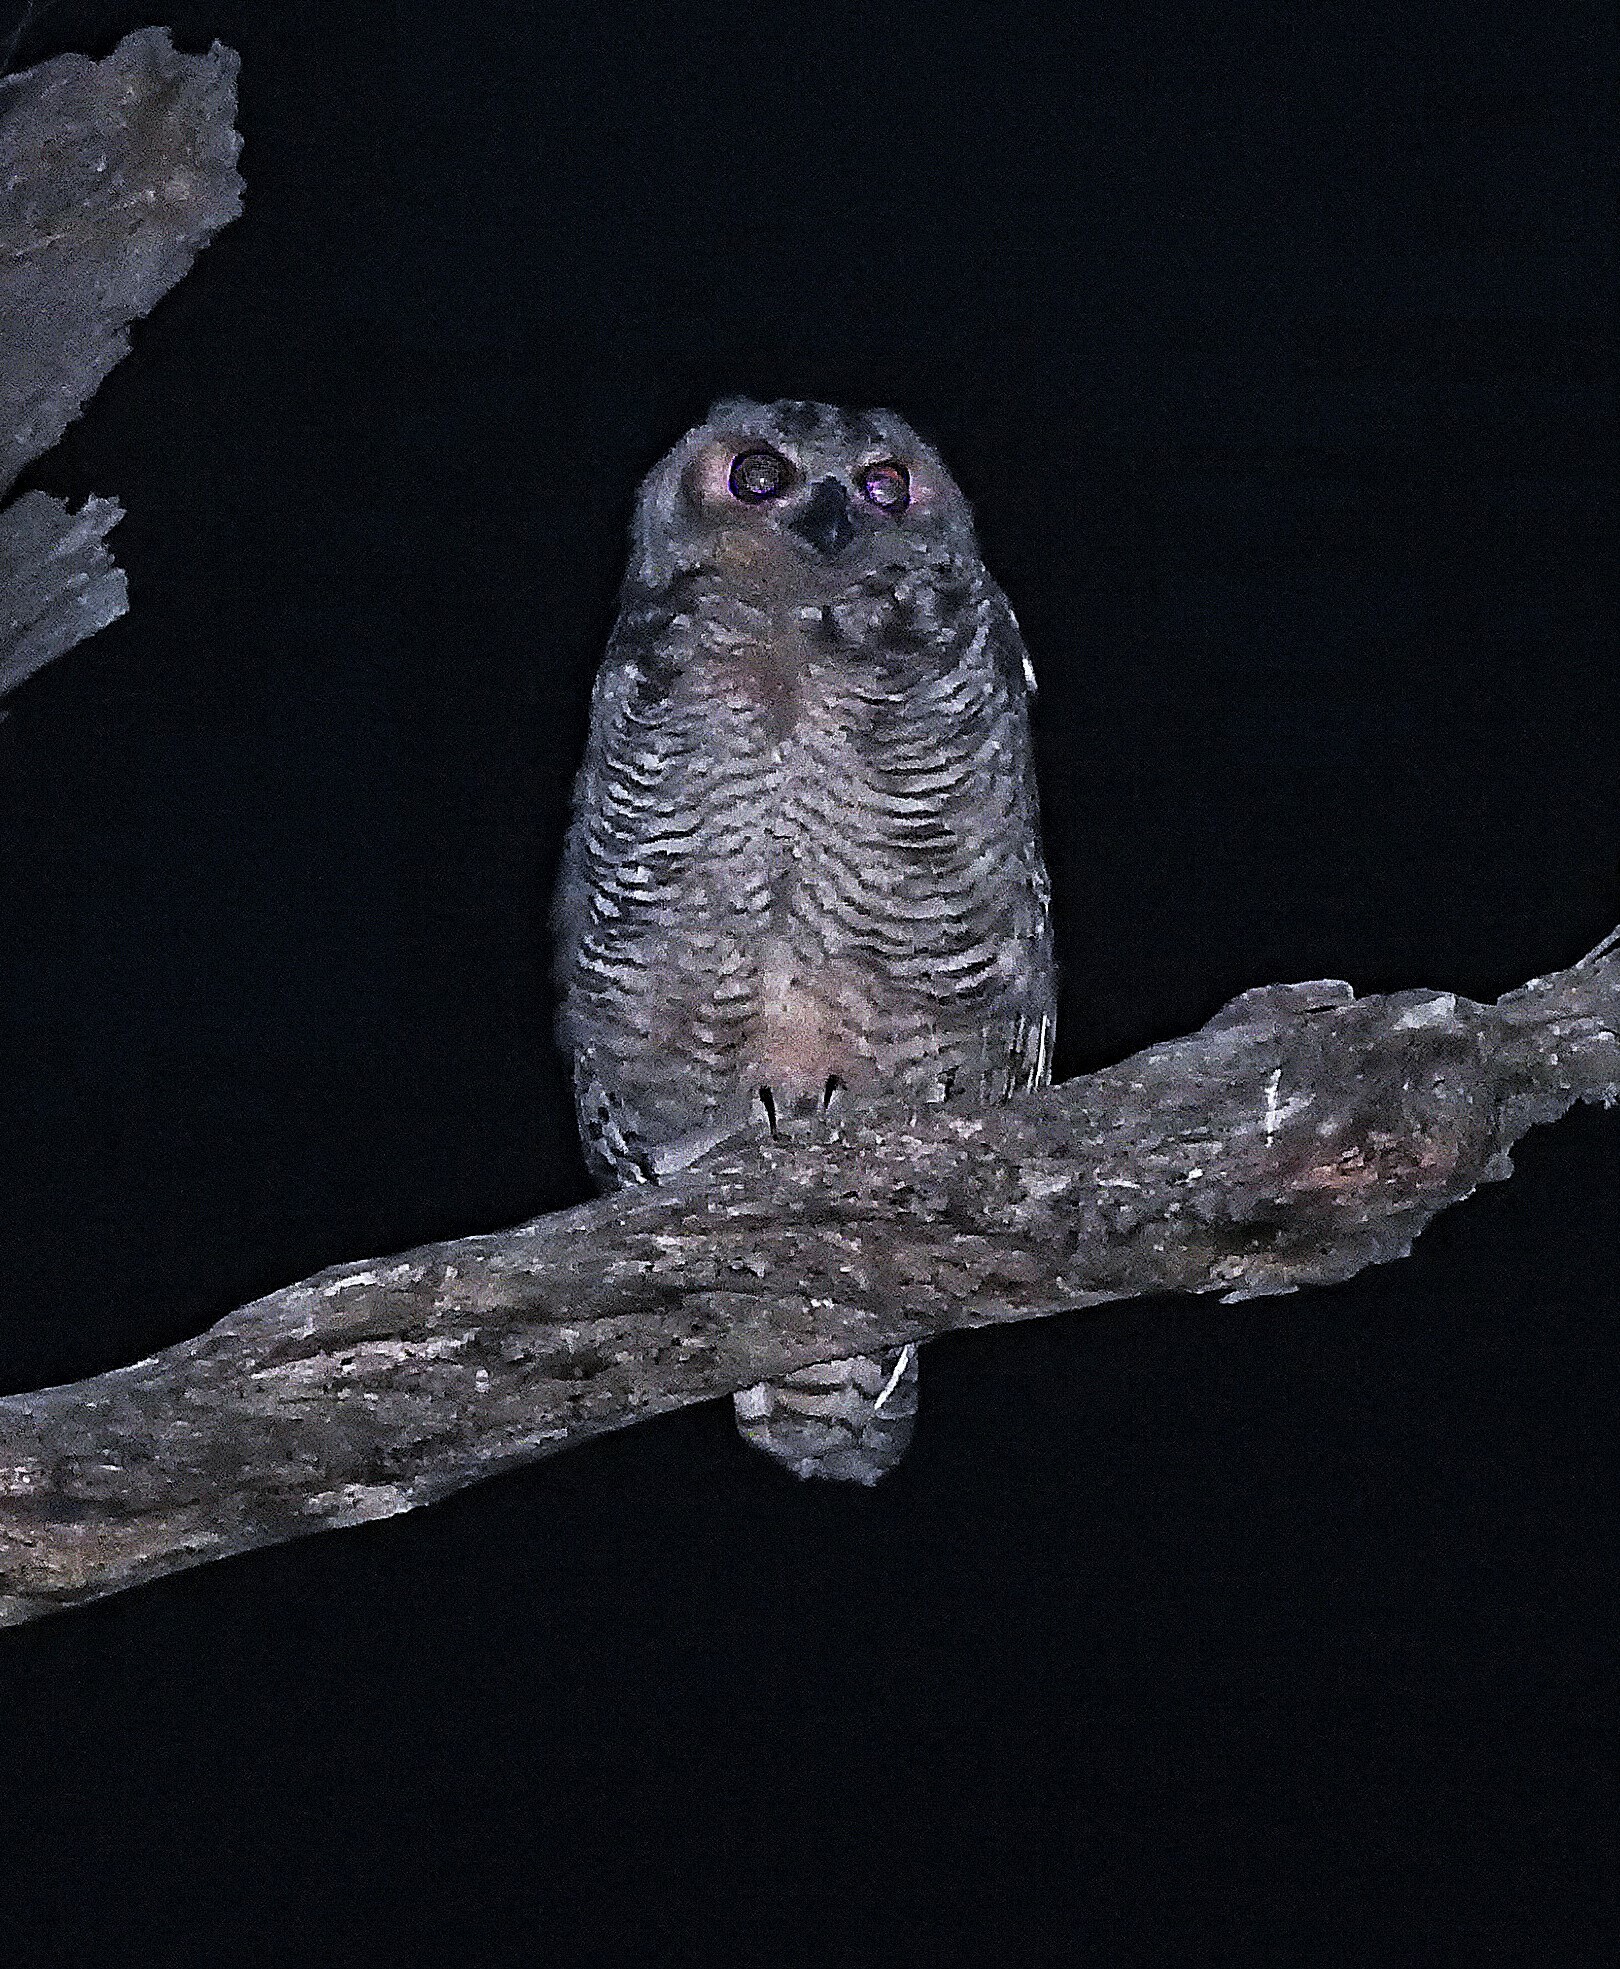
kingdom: Animalia
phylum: Chordata
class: Aves
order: Strigiformes
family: Strigidae
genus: Bubo
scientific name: Bubo virginianus
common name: Great horned owl
